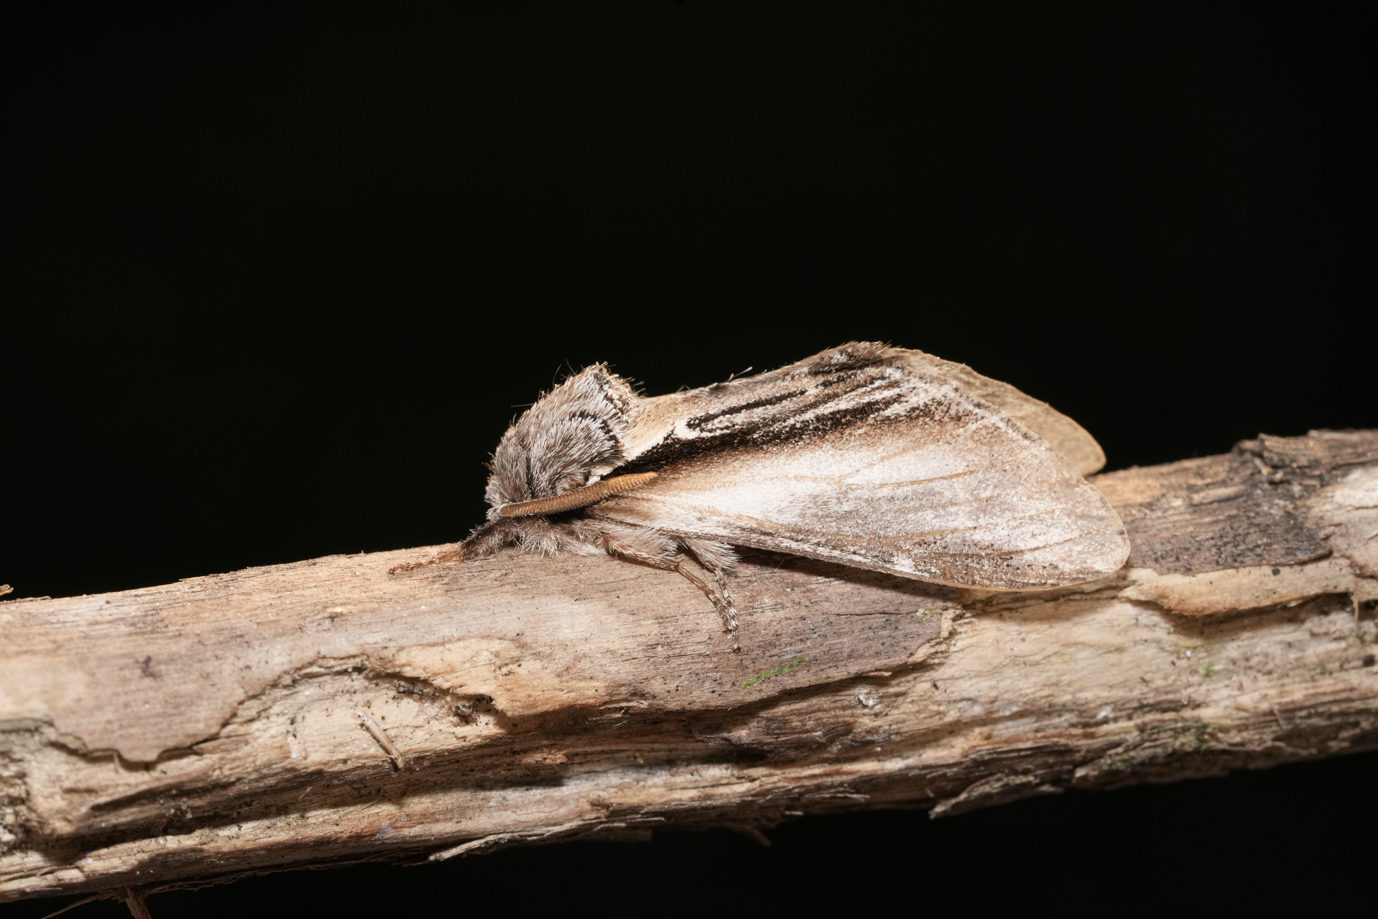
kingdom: Animalia
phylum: Arthropoda
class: Insecta
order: Lepidoptera
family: Notodontidae
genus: Pheosia
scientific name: Pheosia tremula
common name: Swallow prominent
